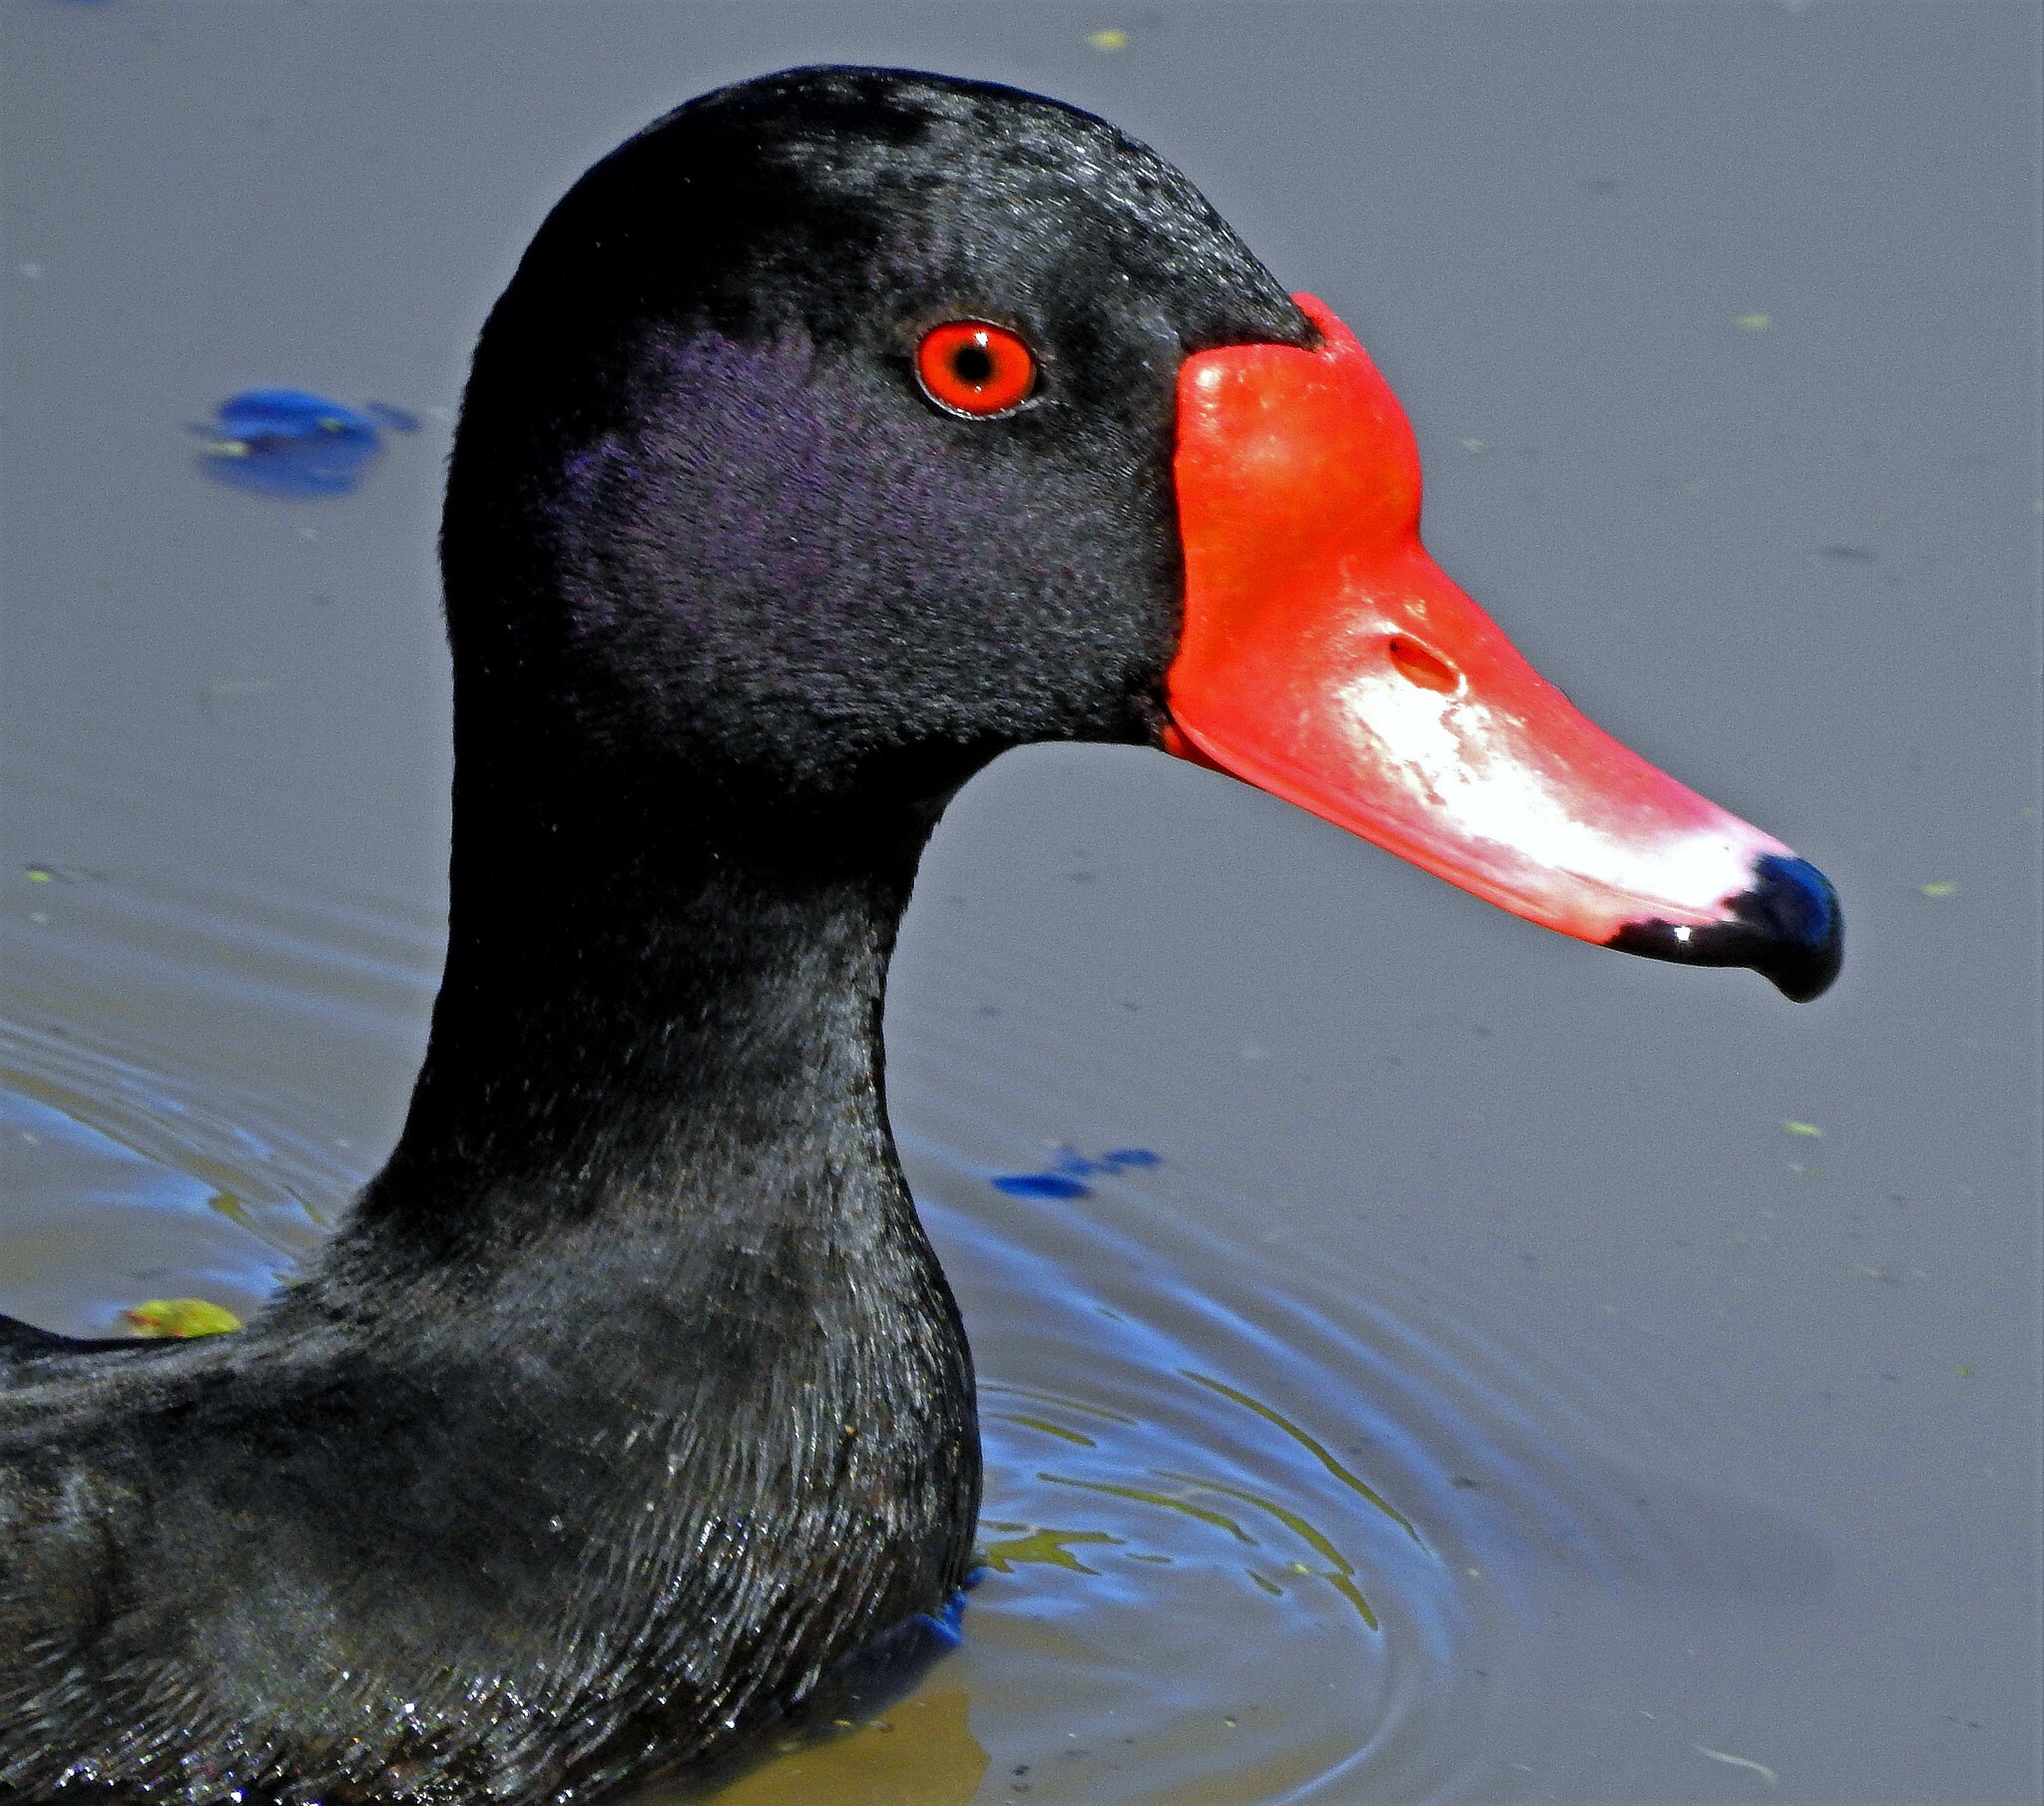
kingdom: Animalia
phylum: Chordata
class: Aves
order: Anseriformes
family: Anatidae
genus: Netta
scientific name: Netta peposaca
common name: Rosy-billed pochard
